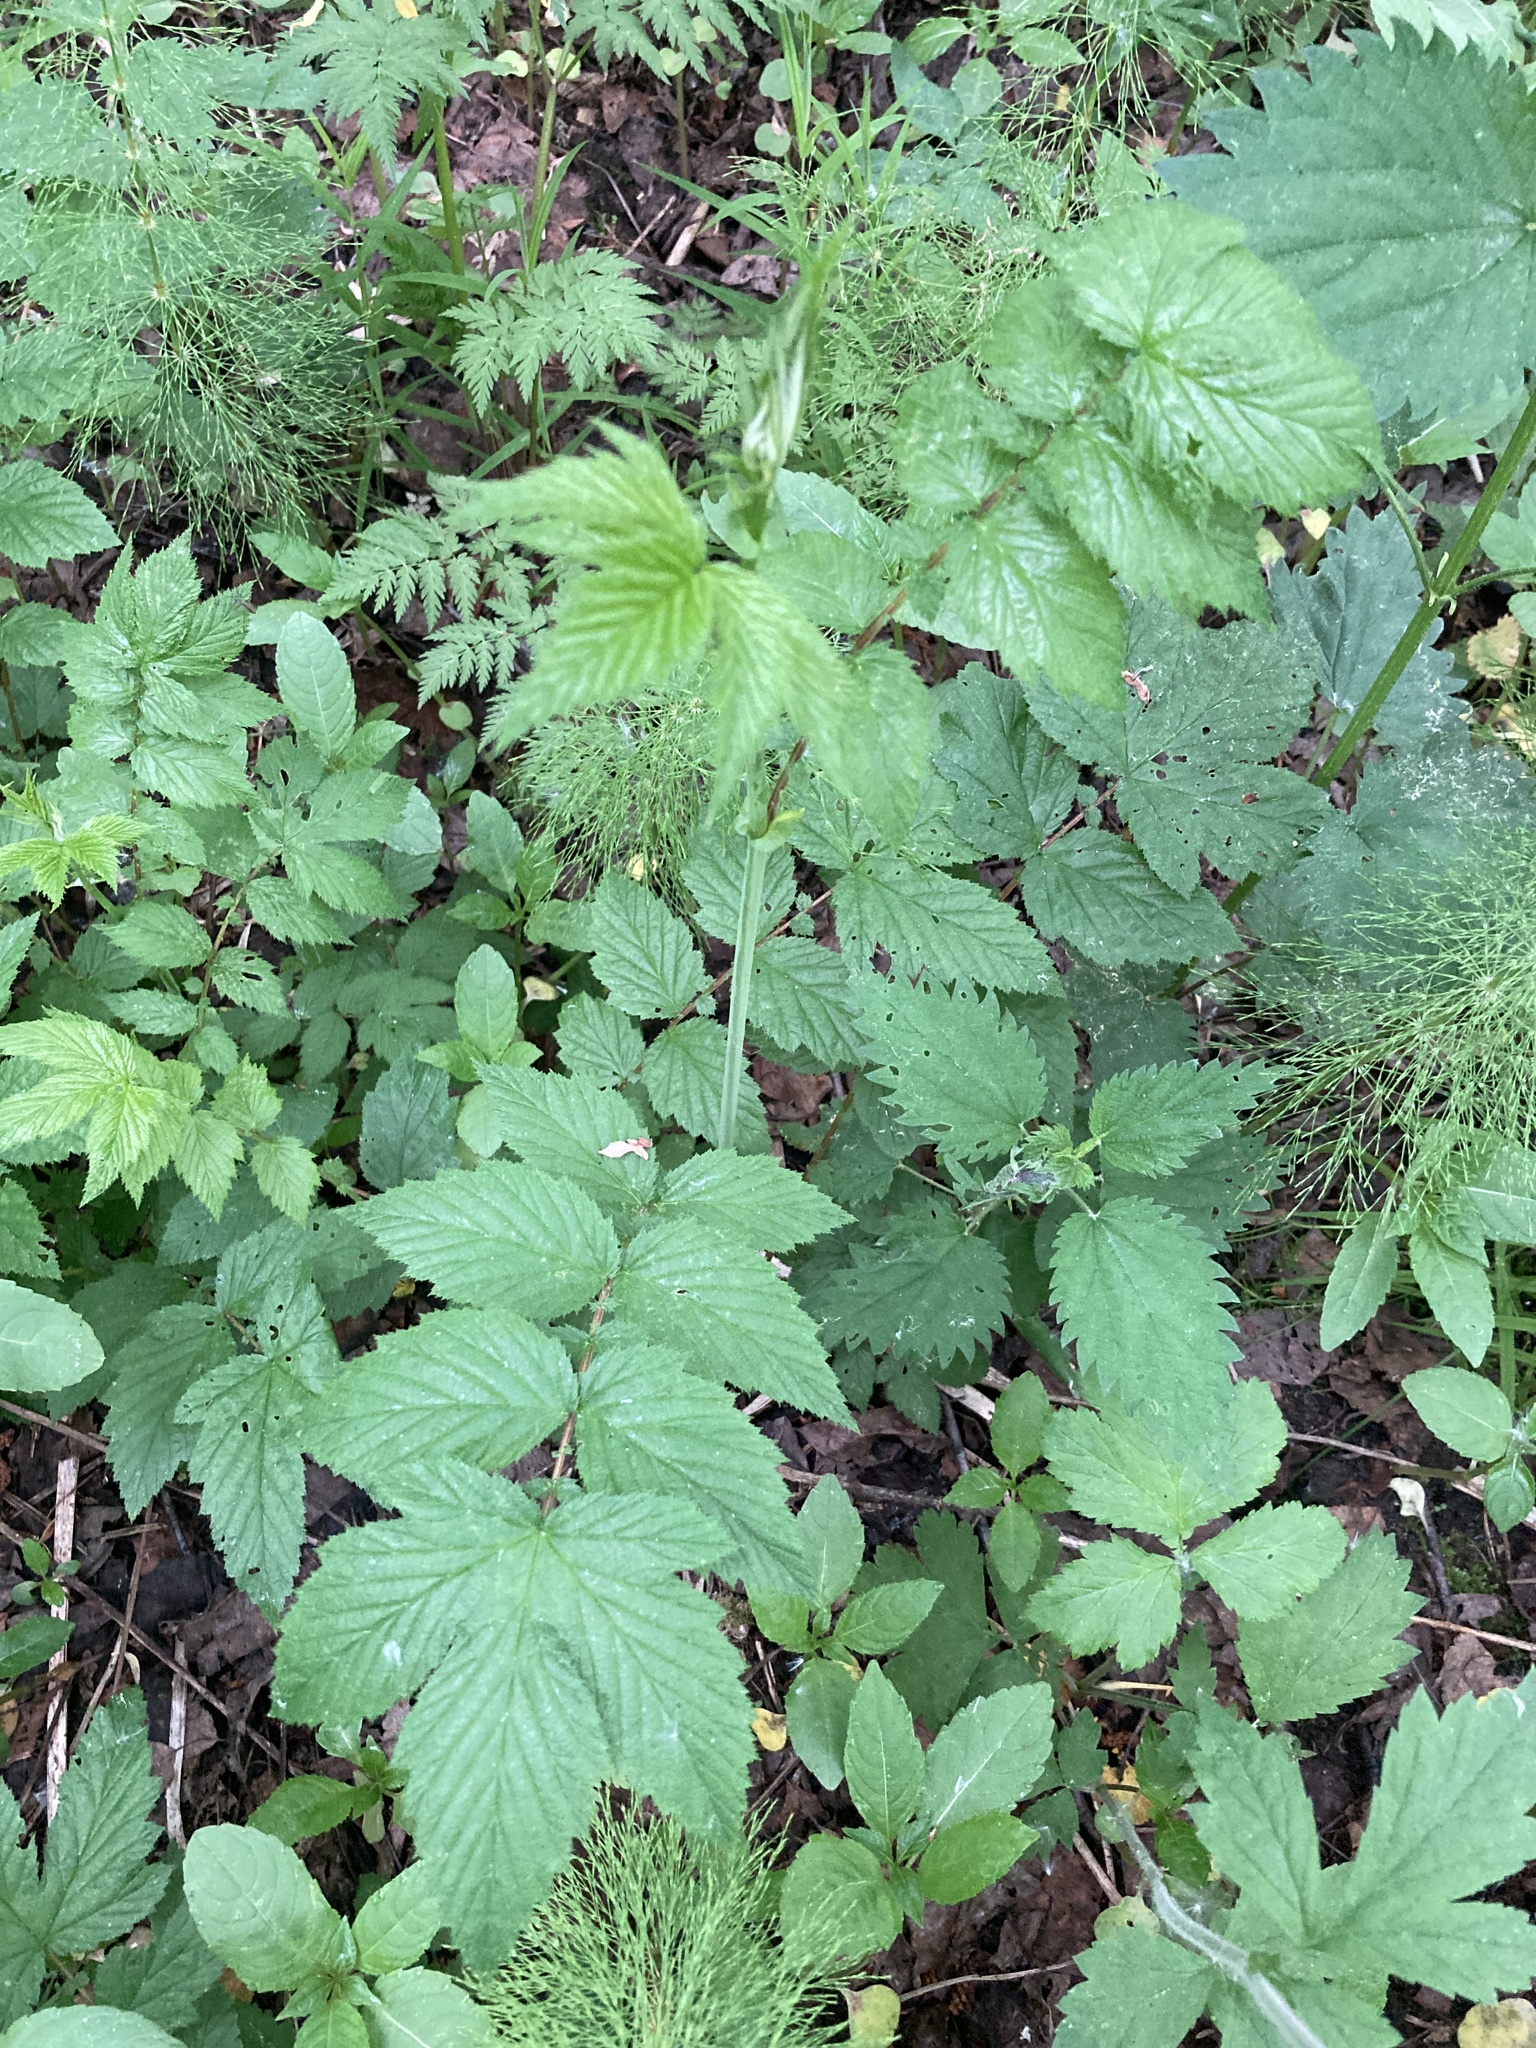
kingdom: Plantae
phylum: Tracheophyta
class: Magnoliopsida
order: Rosales
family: Rosaceae
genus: Filipendula
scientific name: Filipendula ulmaria
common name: Meadowsweet
